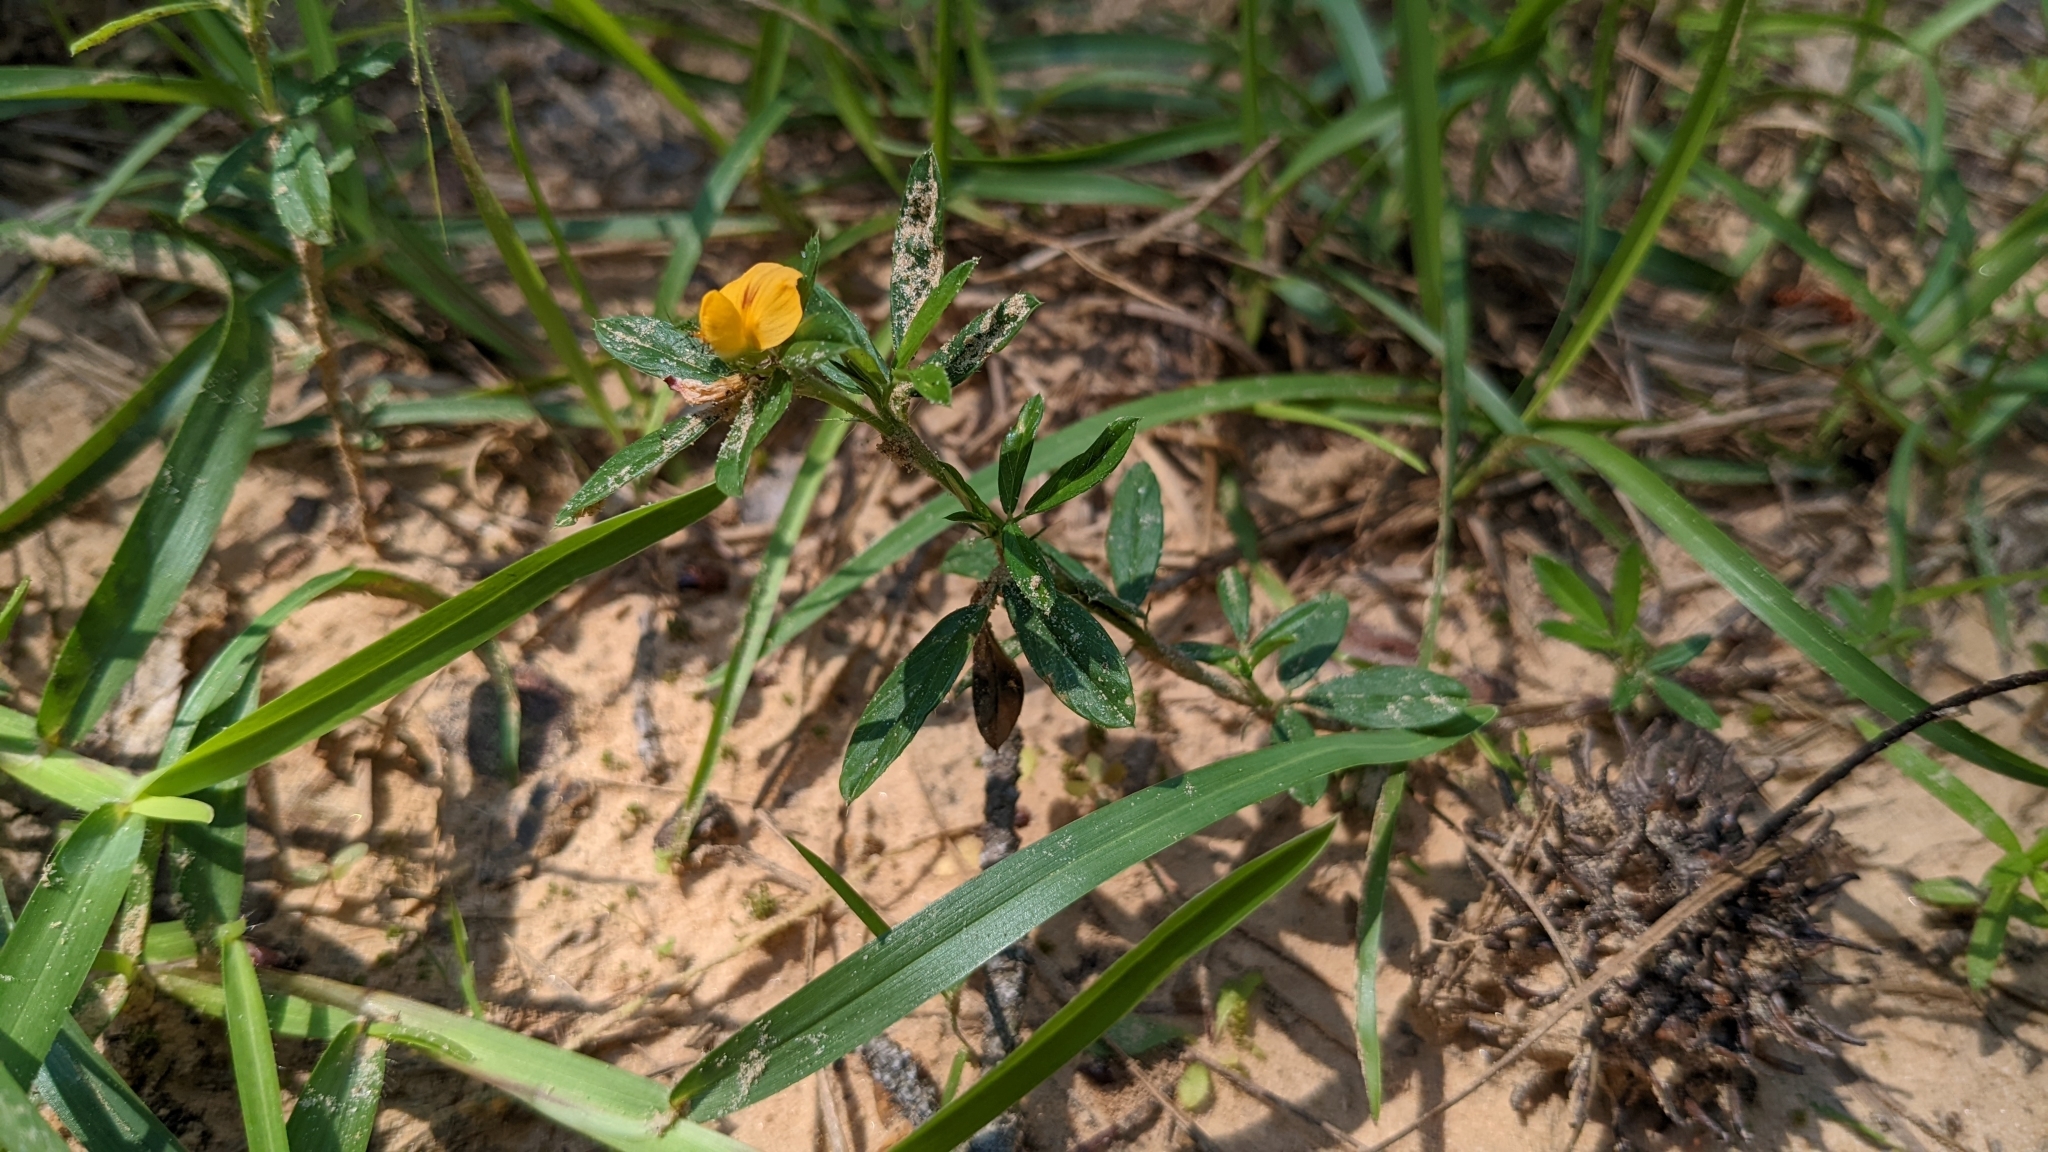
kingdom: Plantae
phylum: Tracheophyta
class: Magnoliopsida
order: Fabales
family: Fabaceae
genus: Stylosanthes
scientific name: Stylosanthes biflora
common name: Two-flower pencil-flower
